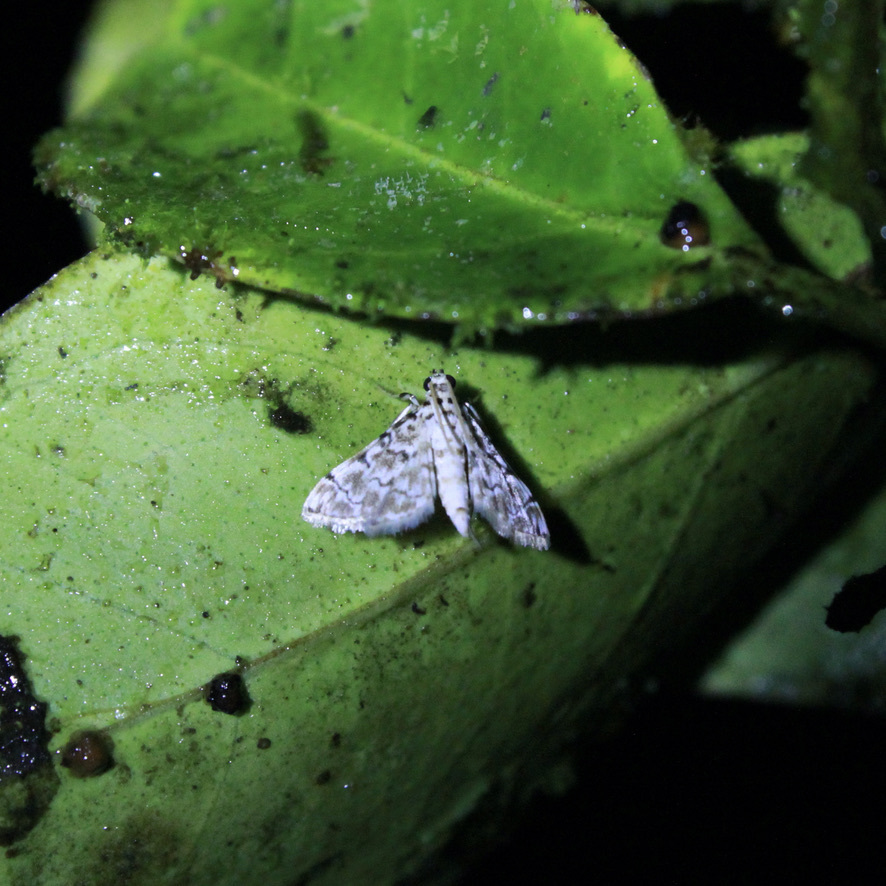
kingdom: Animalia
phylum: Arthropoda
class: Insecta
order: Lepidoptera
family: Crambidae
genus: Metoeca
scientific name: Metoeca foedalis
